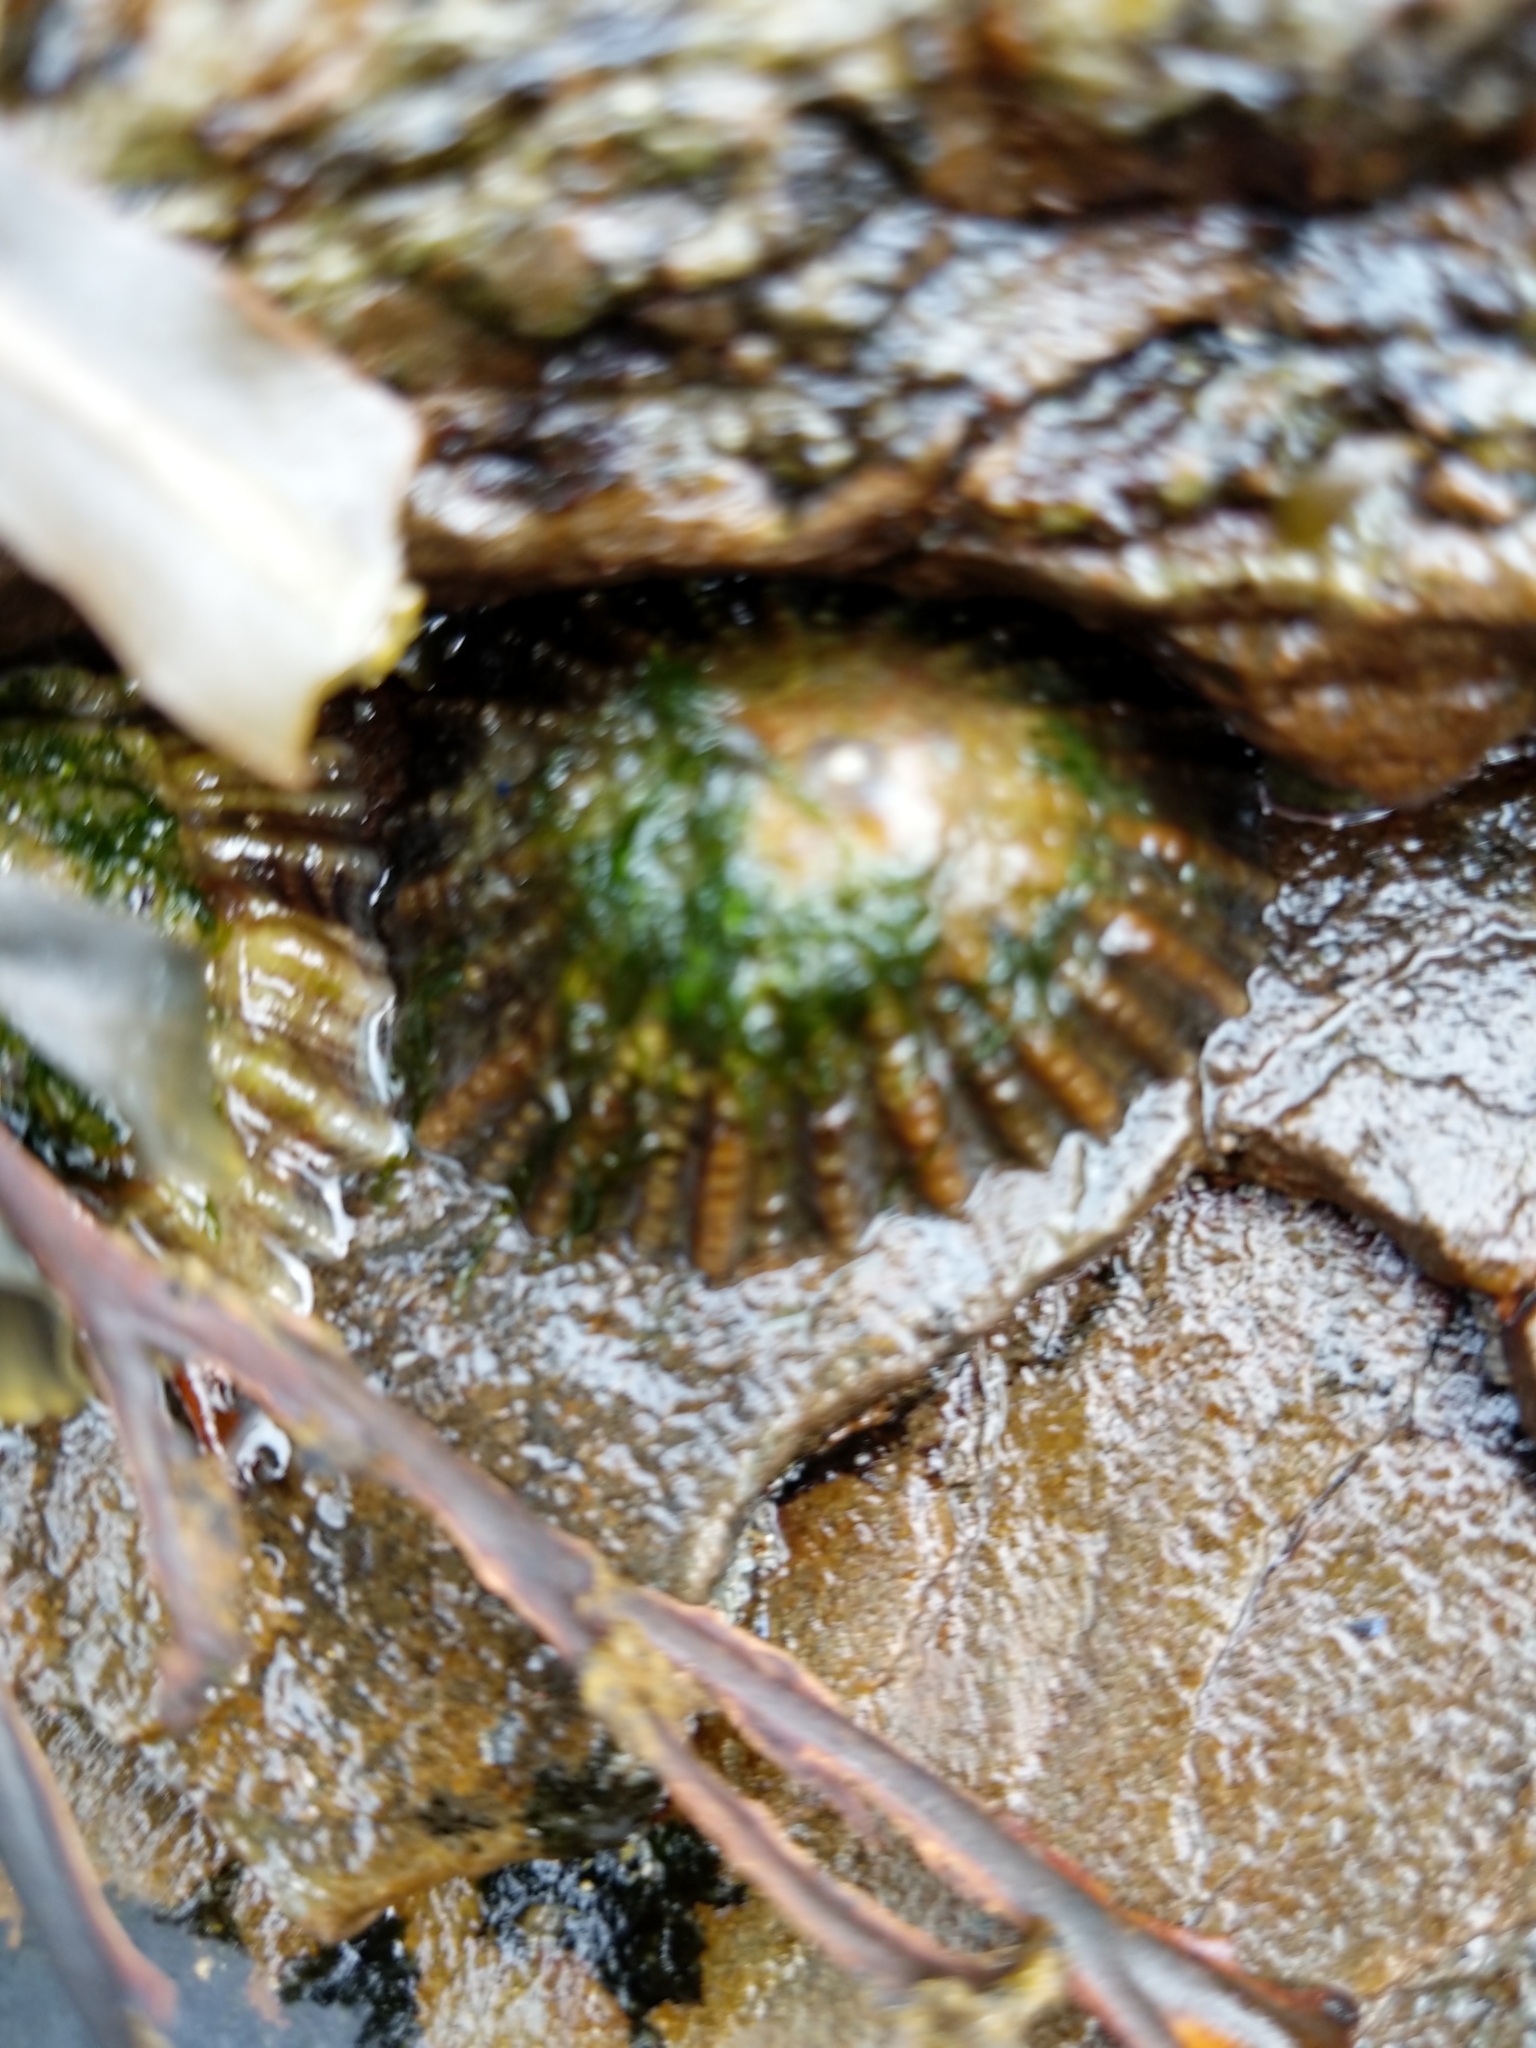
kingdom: Animalia
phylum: Mollusca
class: Gastropoda
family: Patellidae
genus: Patella
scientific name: Patella vulgata
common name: Common limpet
